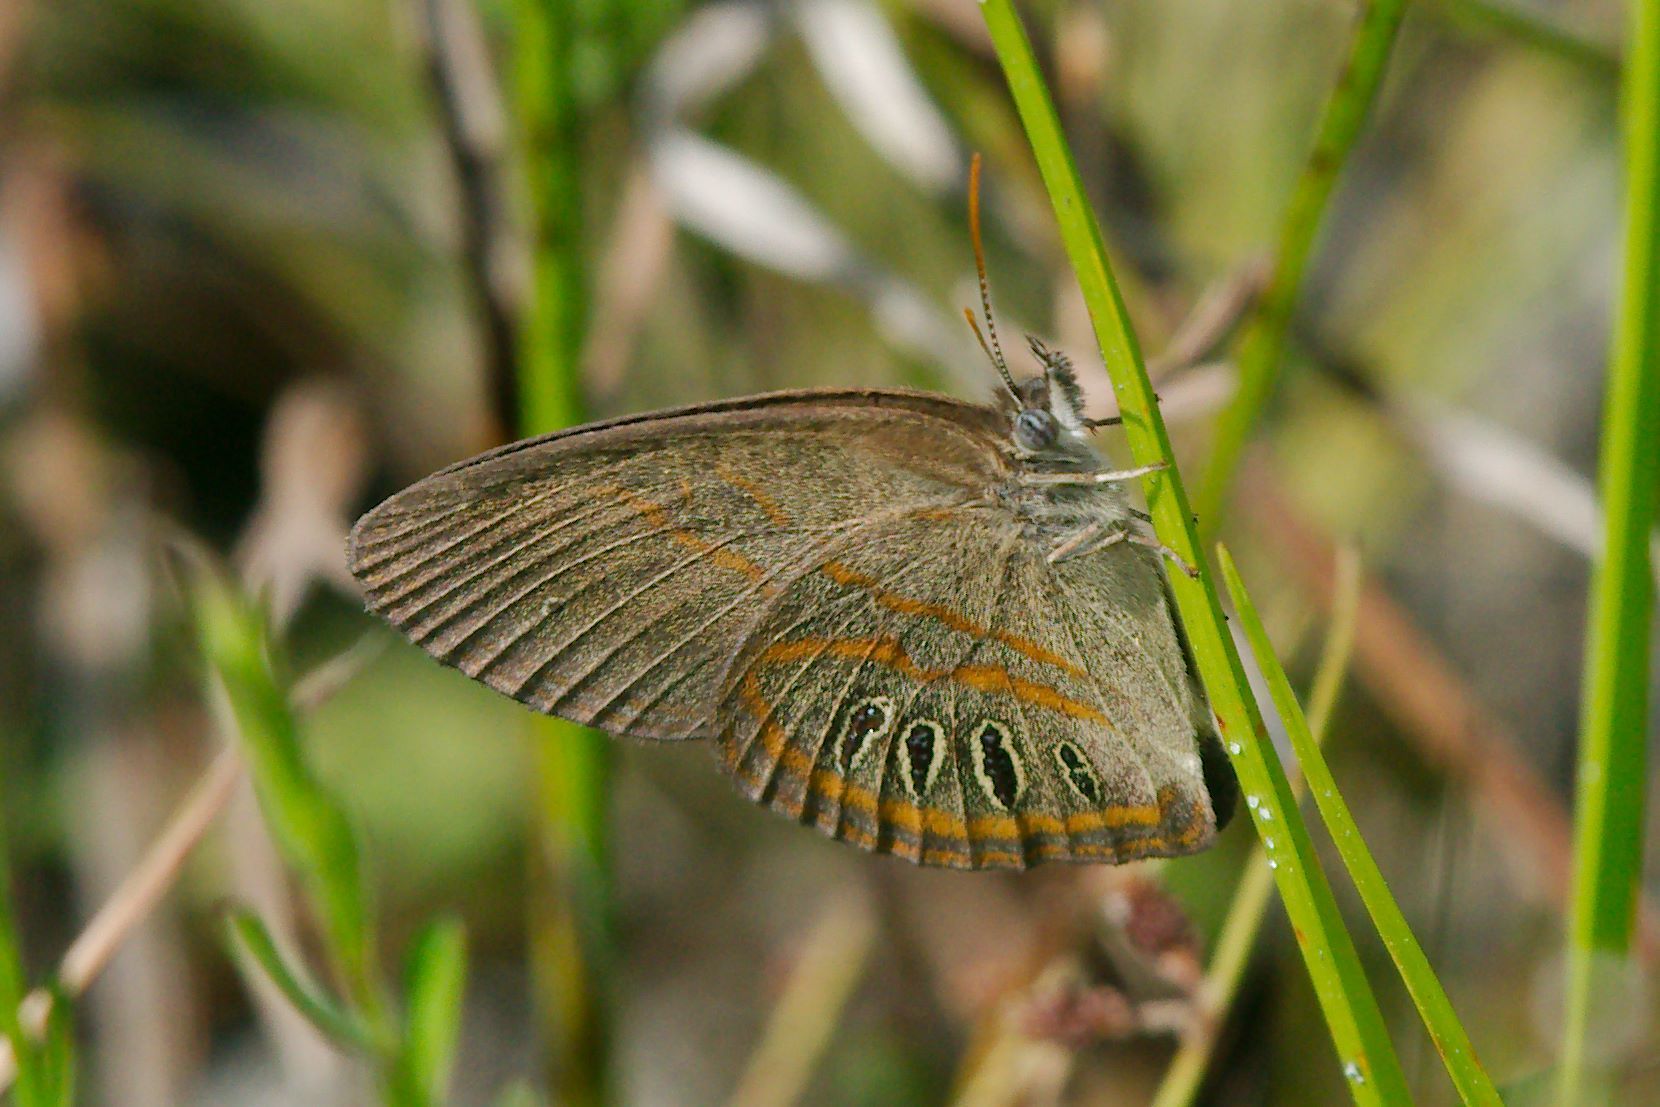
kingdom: Animalia
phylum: Arthropoda
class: Insecta
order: Lepidoptera
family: Nymphalidae
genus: Euptychia
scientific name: Euptychia phocion
